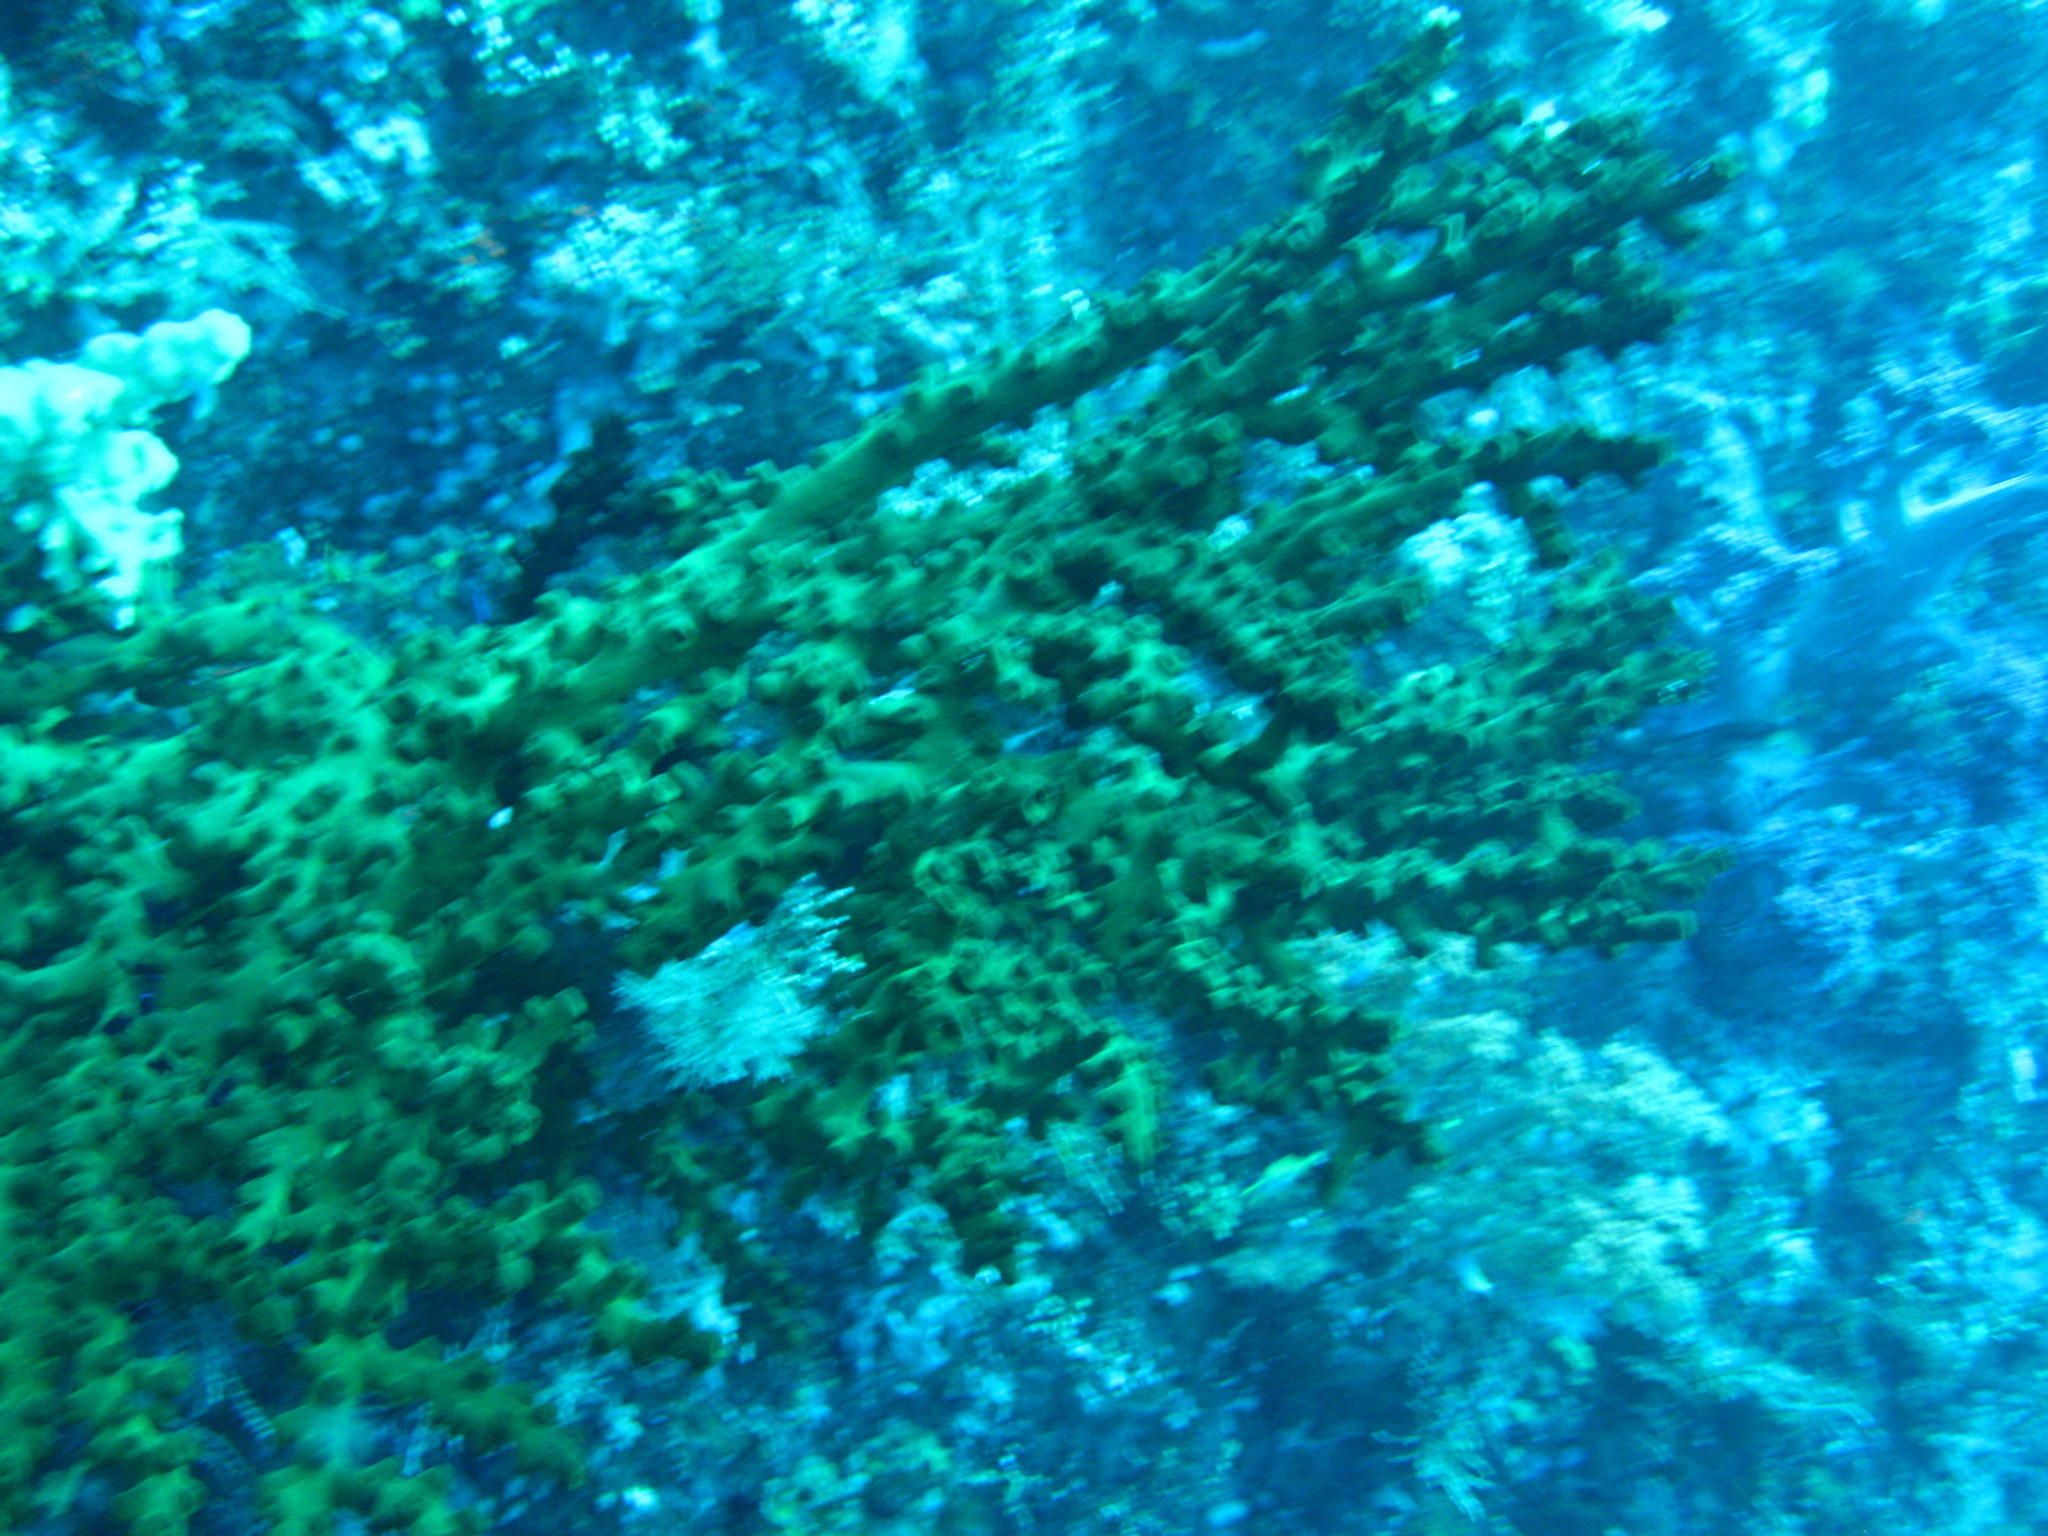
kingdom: Animalia
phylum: Cnidaria
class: Anthozoa
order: Scleractinia
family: Dendrophylliidae
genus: Tubastraea
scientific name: Tubastraea micranthus
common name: Black sun coral
